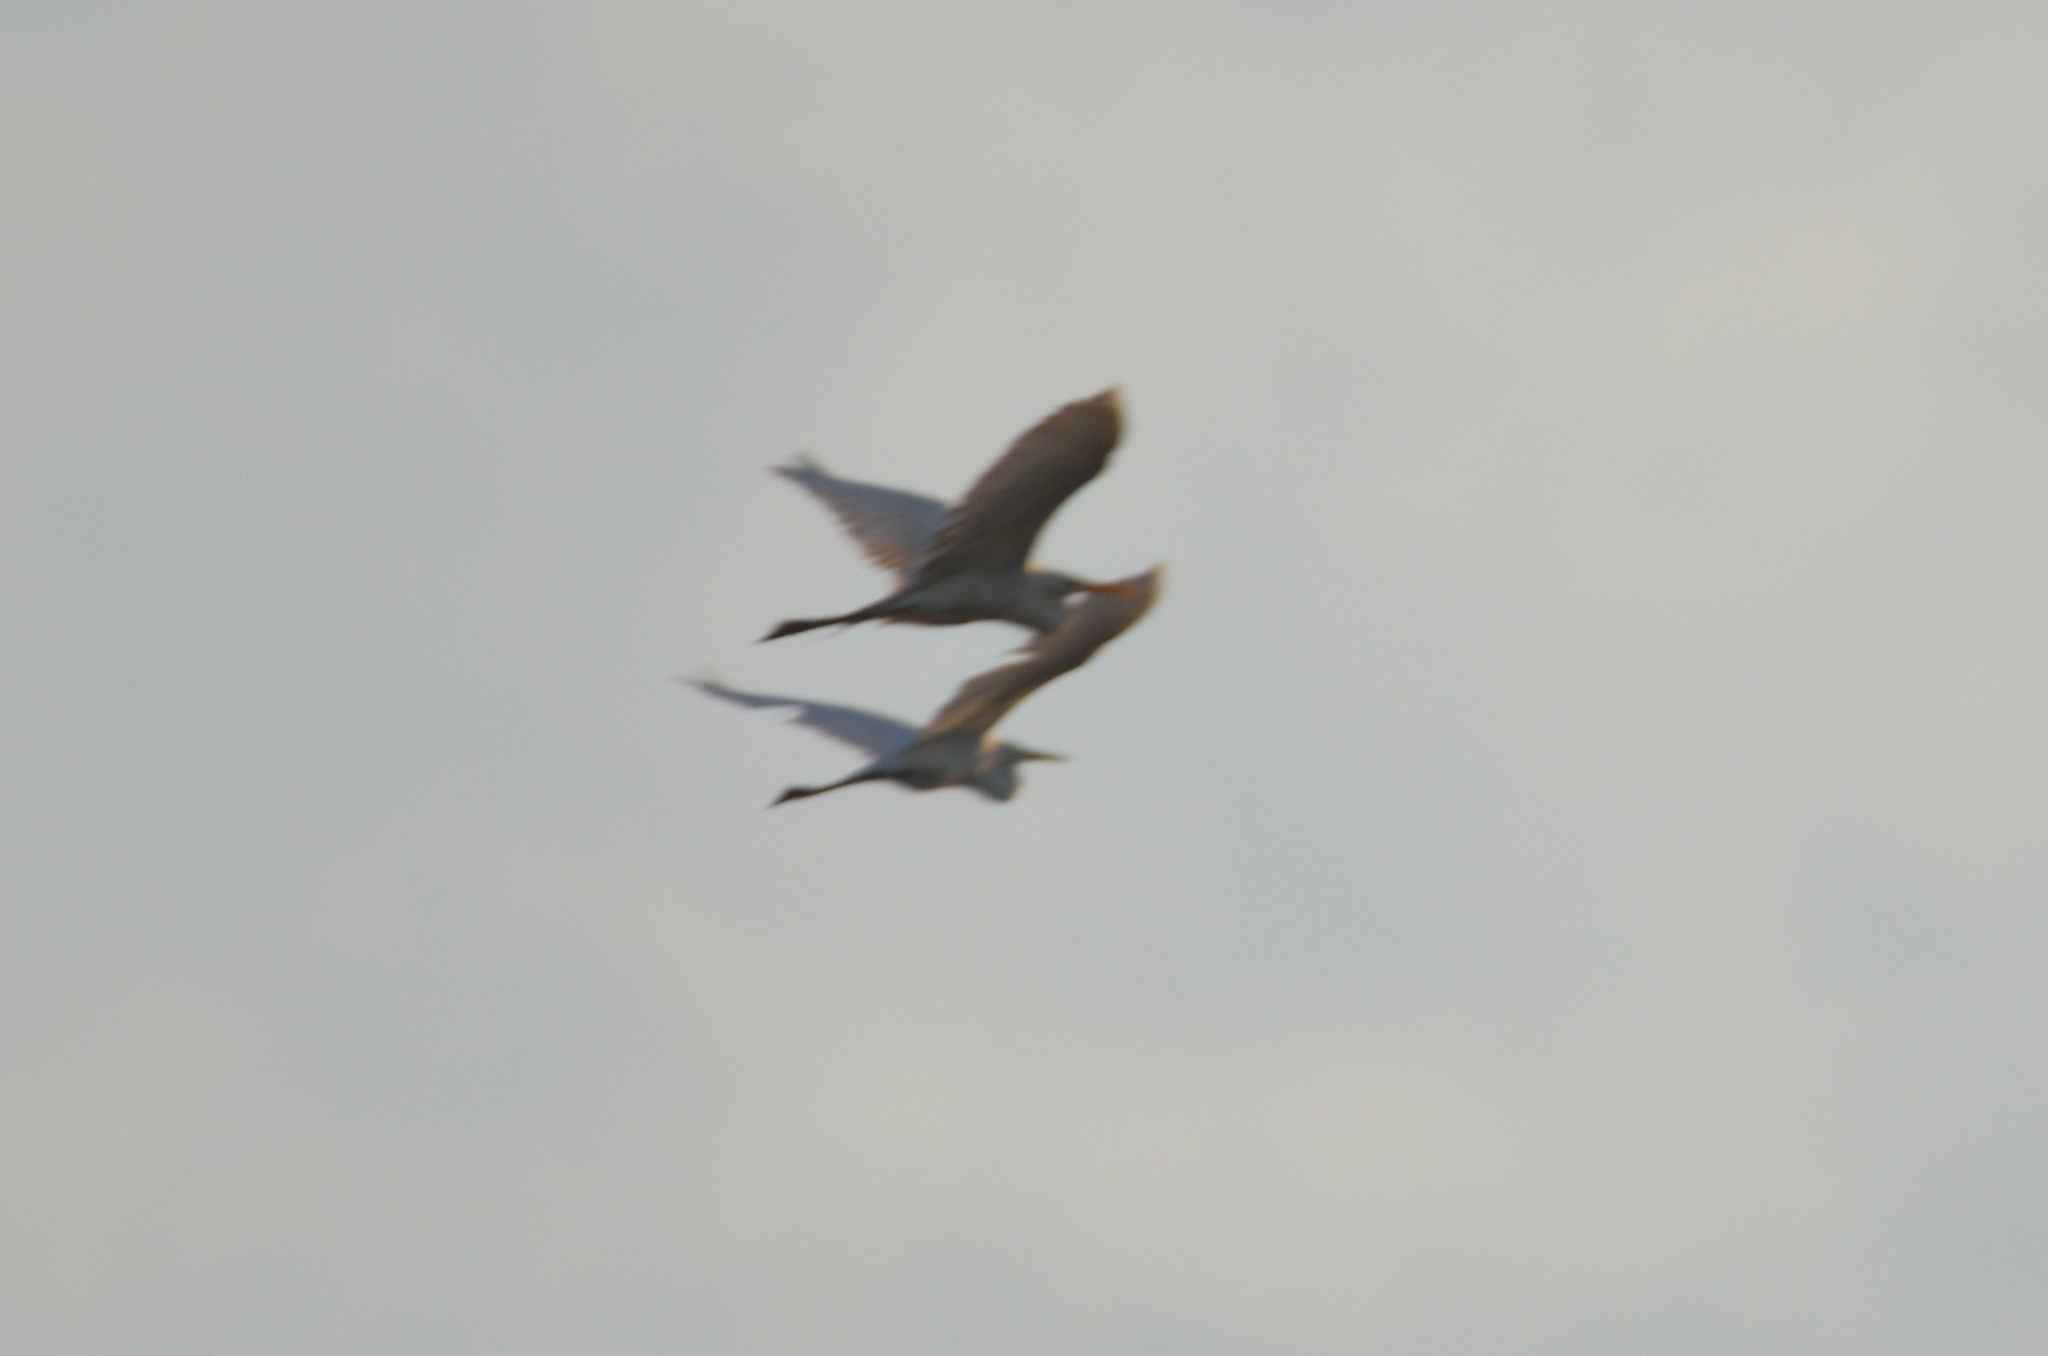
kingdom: Animalia
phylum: Chordata
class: Aves
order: Pelecaniformes
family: Ardeidae
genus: Ardea
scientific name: Ardea alba
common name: Great egret
